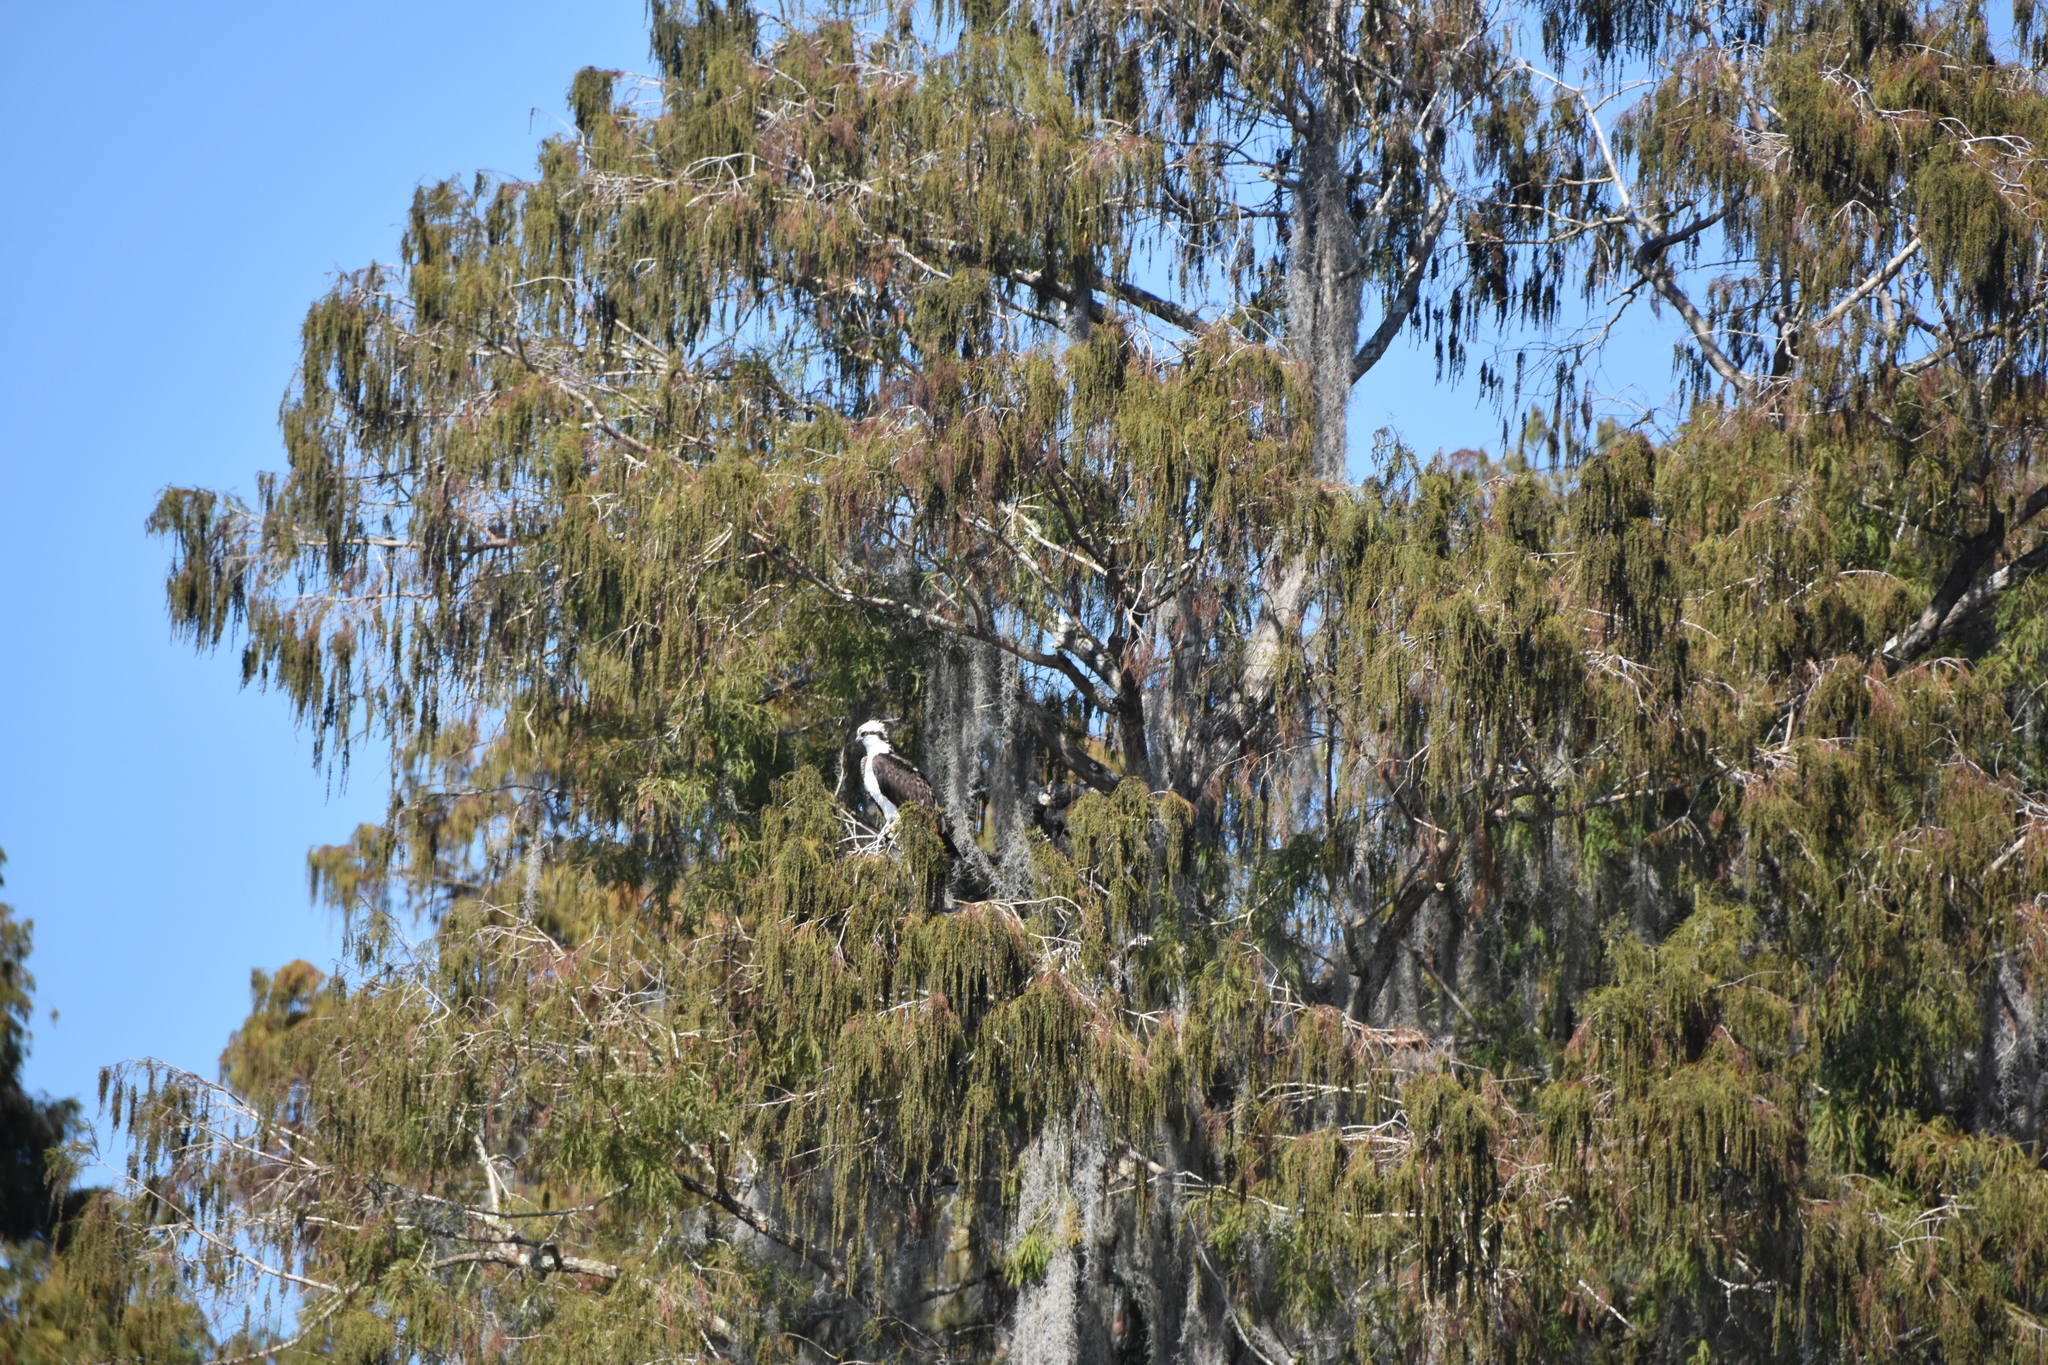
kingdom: Animalia
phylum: Chordata
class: Aves
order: Accipitriformes
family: Pandionidae
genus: Pandion
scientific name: Pandion haliaetus
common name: Osprey
